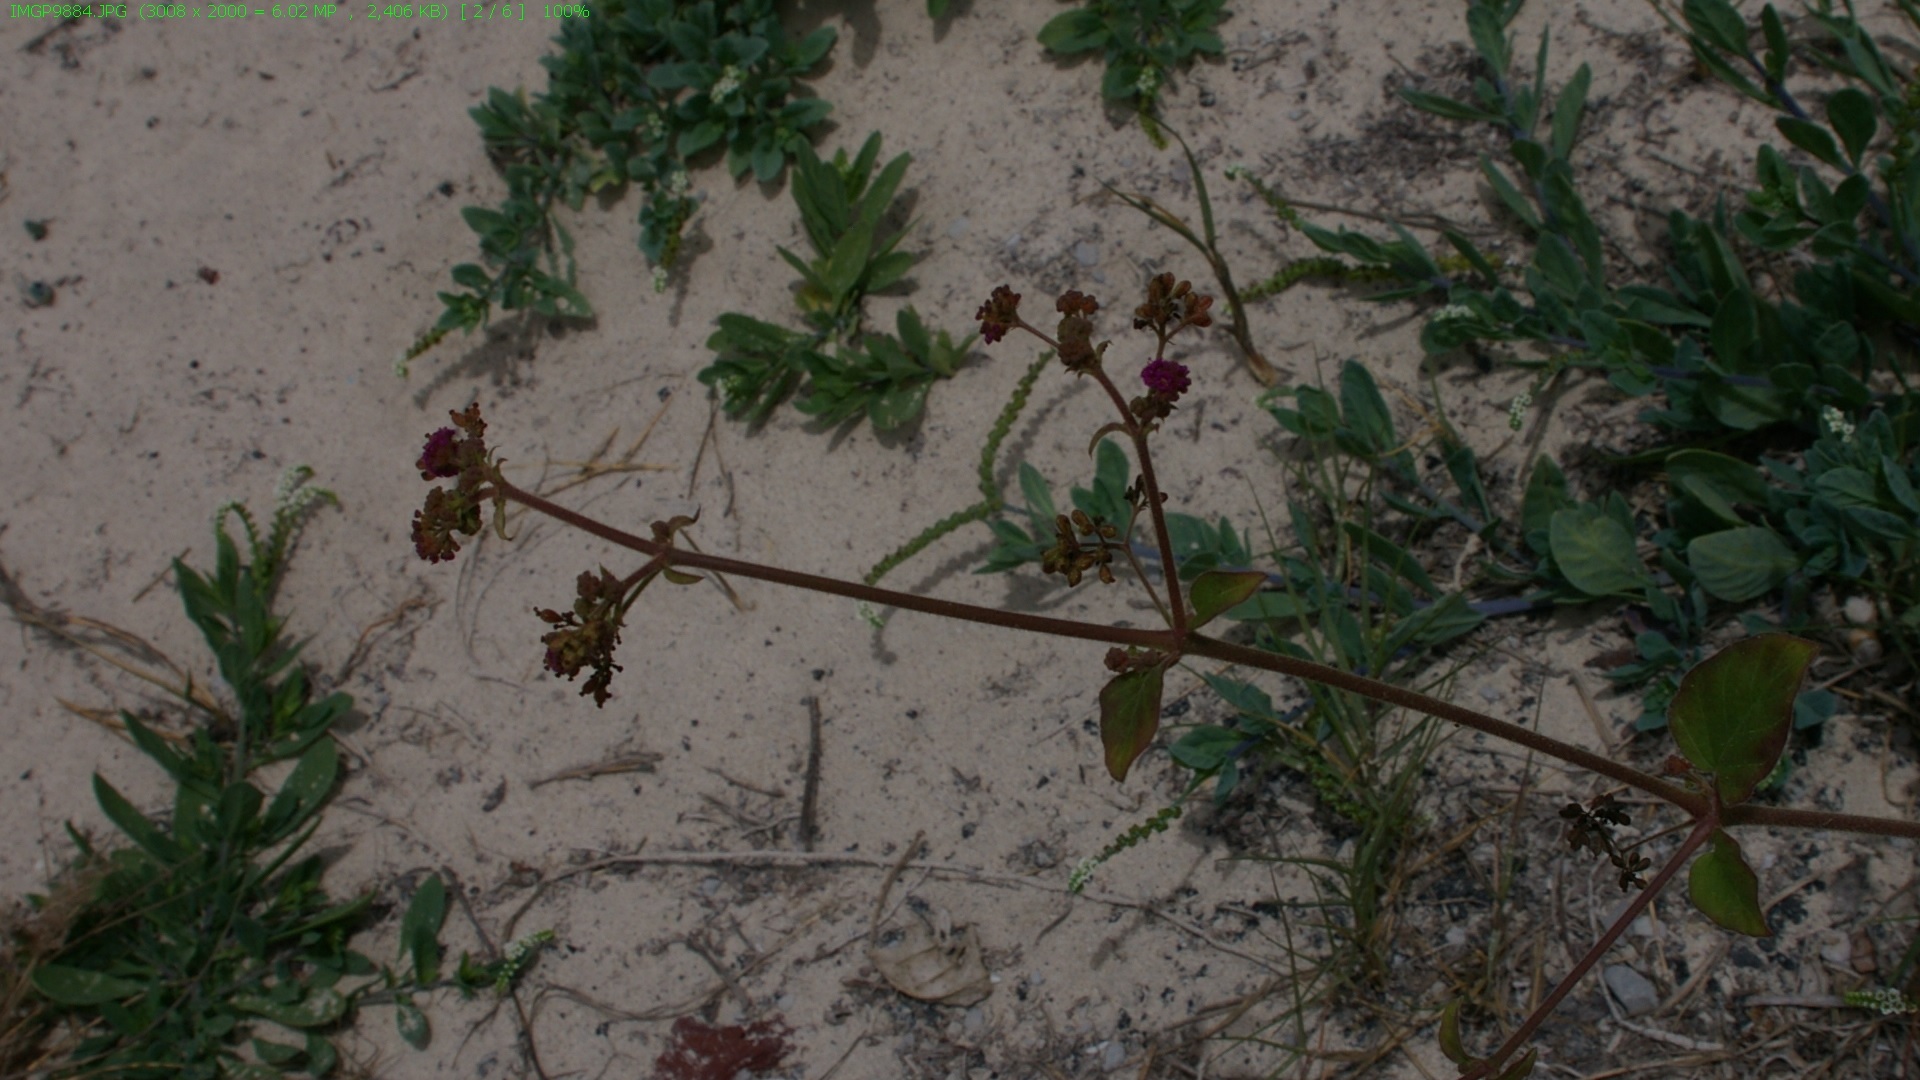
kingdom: Plantae
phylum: Tracheophyta
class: Magnoliopsida
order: Caryophyllales
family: Nyctaginaceae
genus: Boerhavia
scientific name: Boerhavia coccinea
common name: Scarlet spiderling
